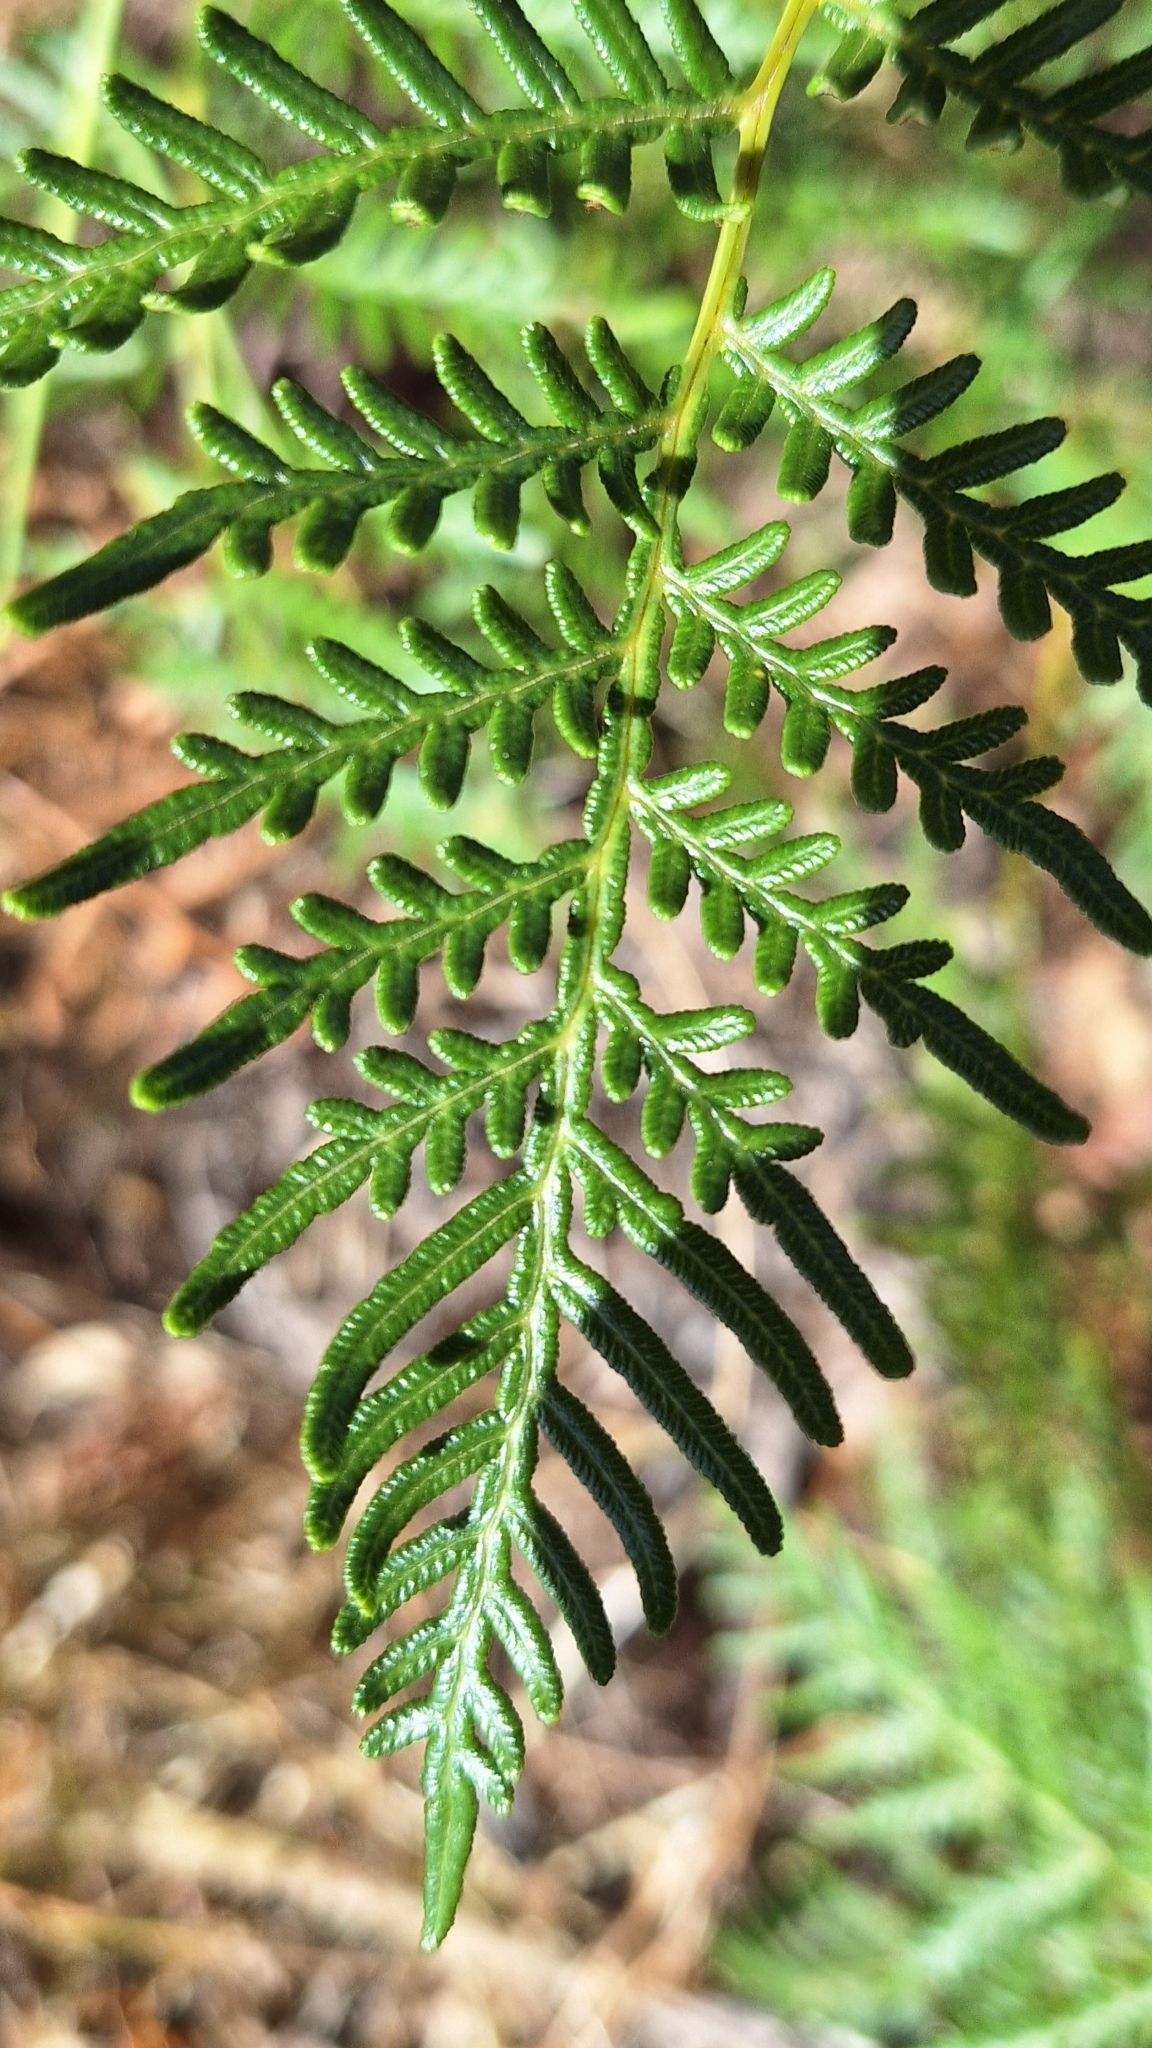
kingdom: Plantae
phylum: Tracheophyta
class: Polypodiopsida
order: Polypodiales
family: Dennstaedtiaceae
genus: Pteridium
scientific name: Pteridium esculentum
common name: Bracken fern
